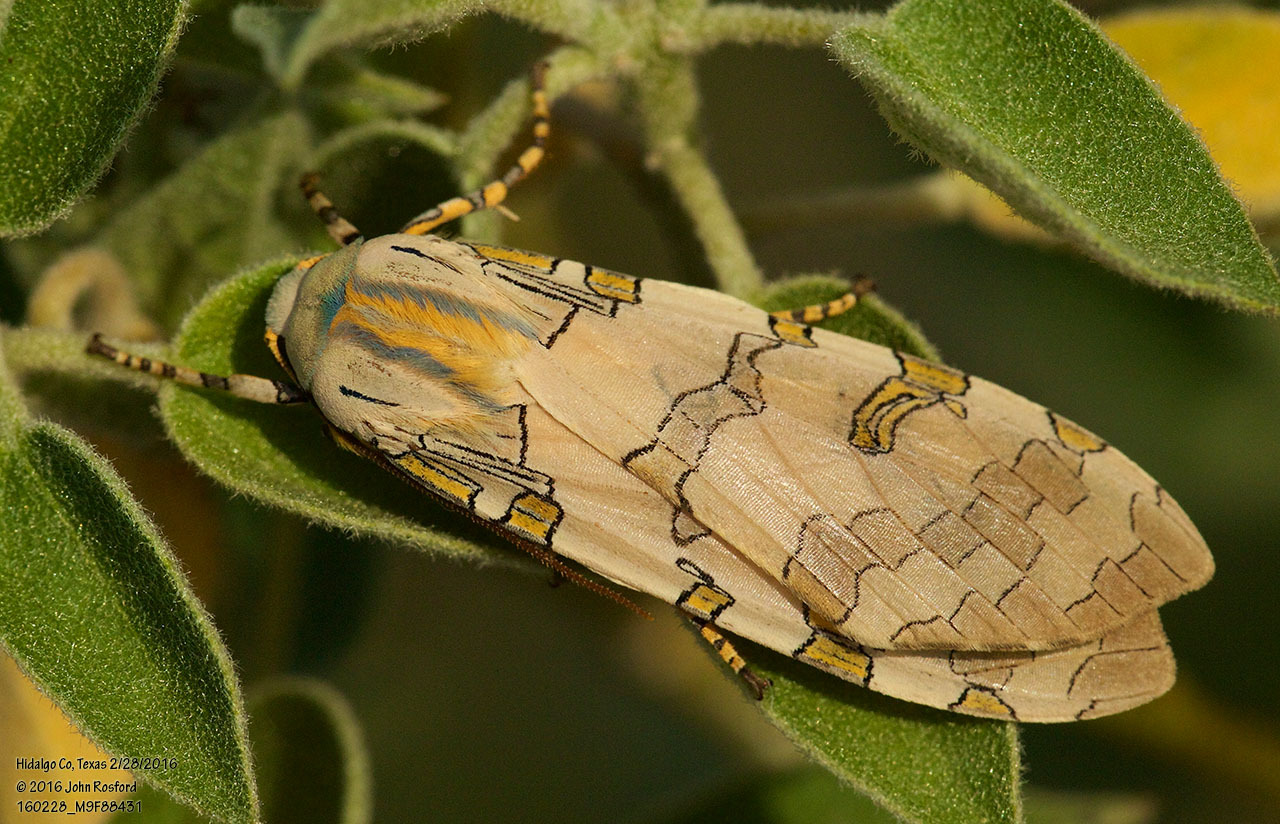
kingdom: Animalia
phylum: Arthropoda
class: Insecta
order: Lepidoptera
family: Erebidae
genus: Halysidota
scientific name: Halysidota schausi
